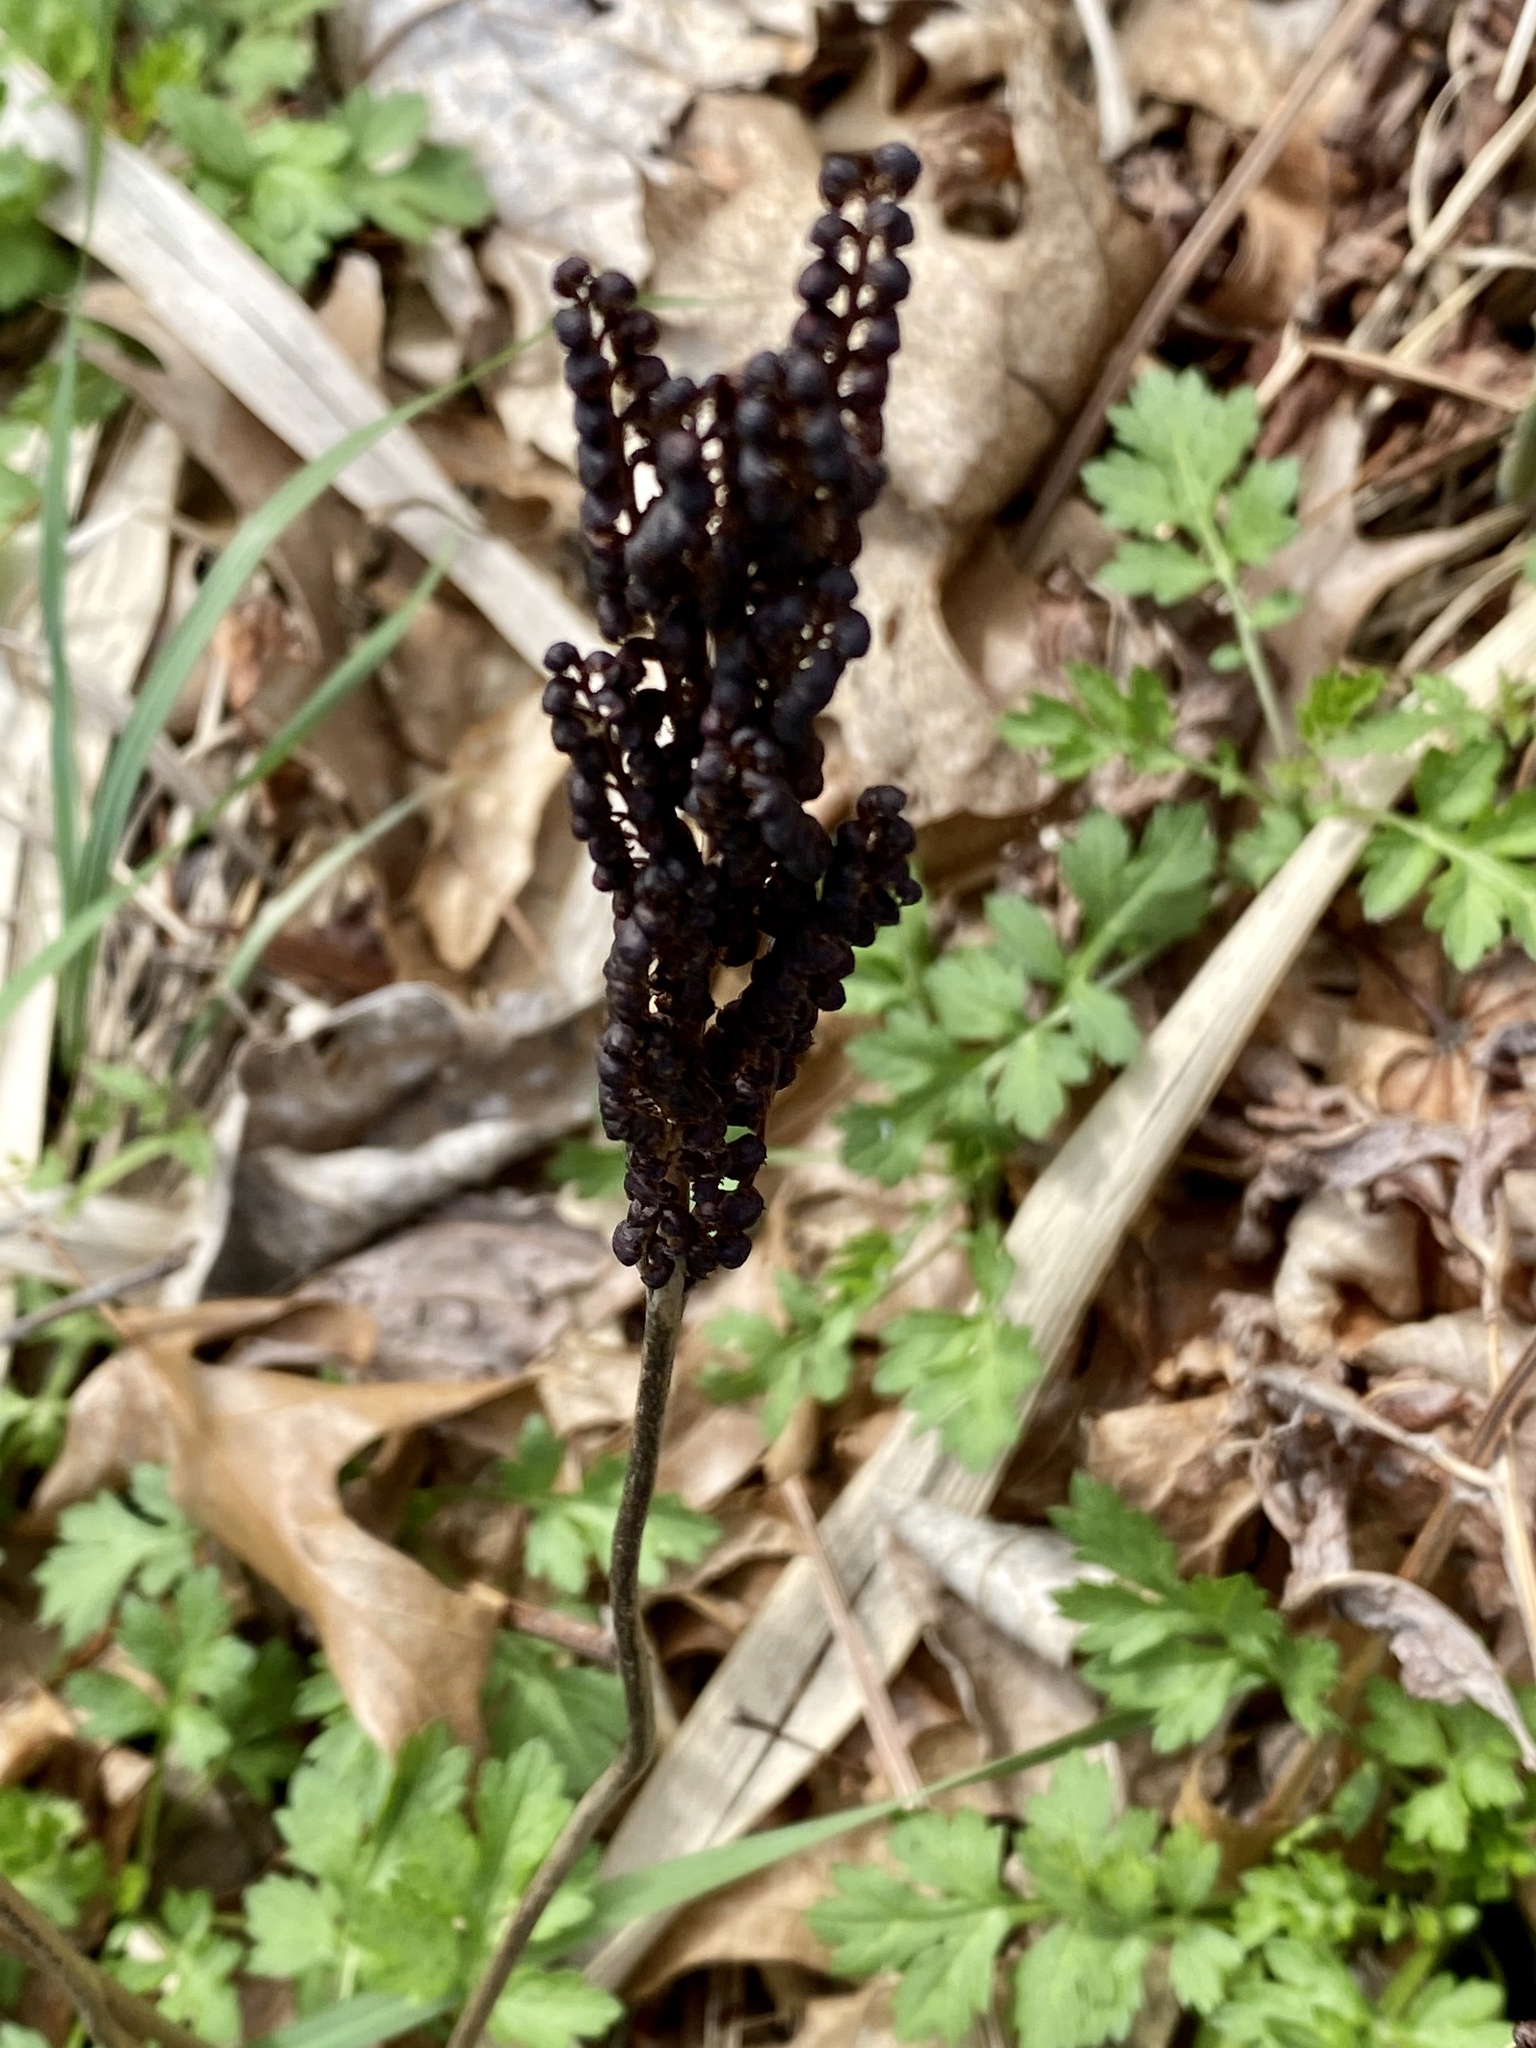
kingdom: Plantae
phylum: Tracheophyta
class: Polypodiopsida
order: Polypodiales
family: Onocleaceae
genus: Onoclea
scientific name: Onoclea sensibilis
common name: Sensitive fern
